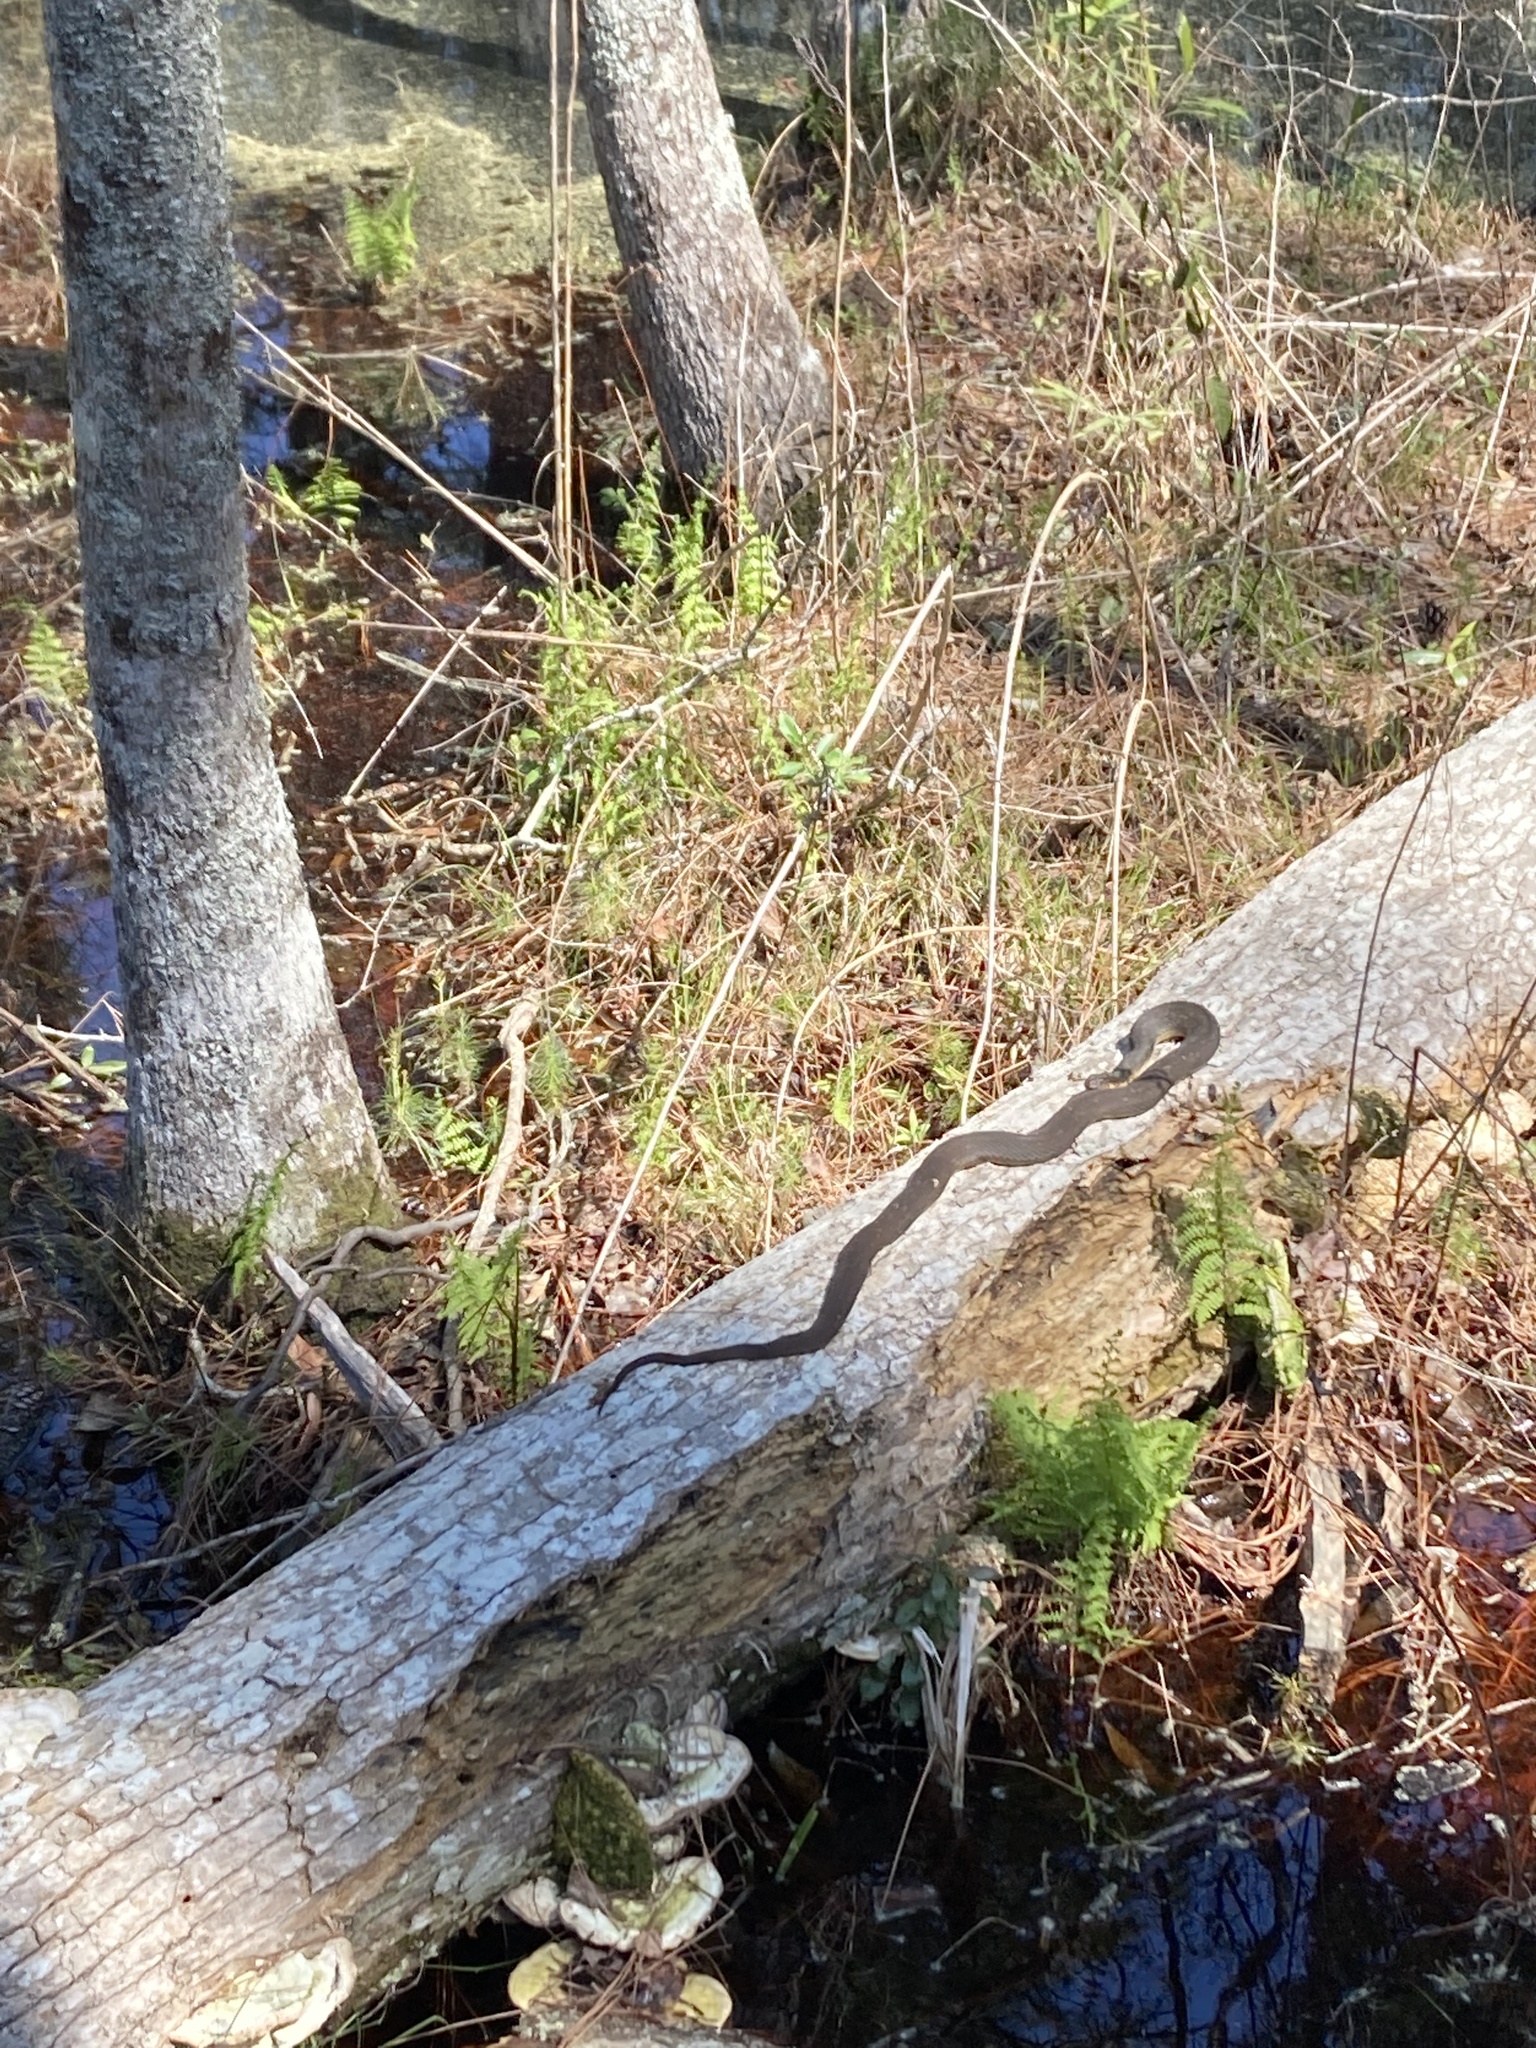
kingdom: Animalia
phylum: Chordata
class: Squamata
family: Colubridae
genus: Nerodia
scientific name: Nerodia erythrogaster
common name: Plainbelly water snake
